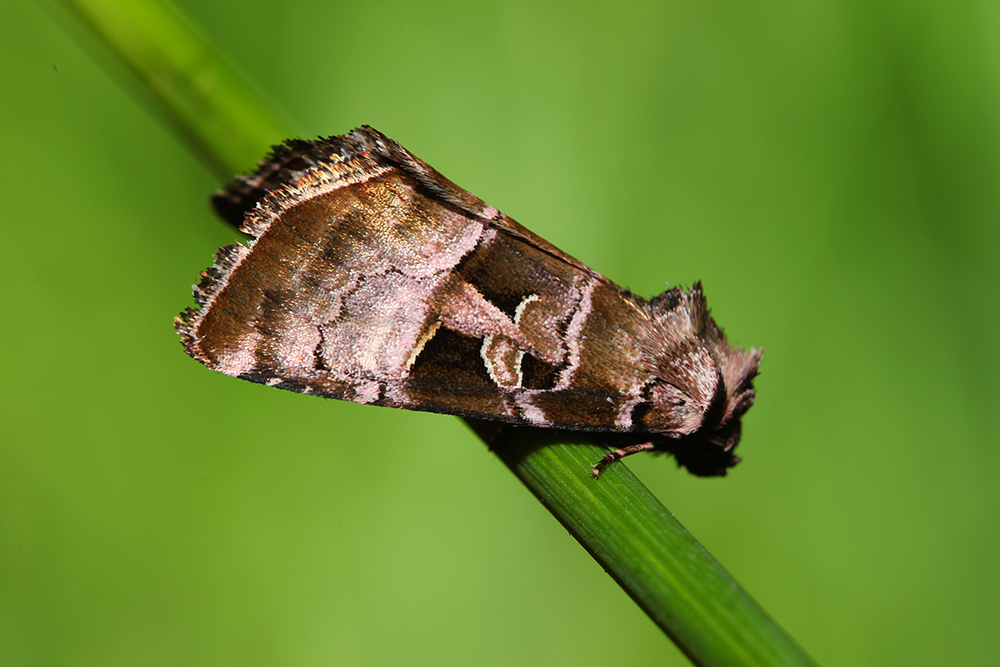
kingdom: Animalia
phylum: Arthropoda
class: Insecta
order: Lepidoptera
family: Noctuidae
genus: Eucarta
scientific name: Eucarta amethystina
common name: Cumberland green
